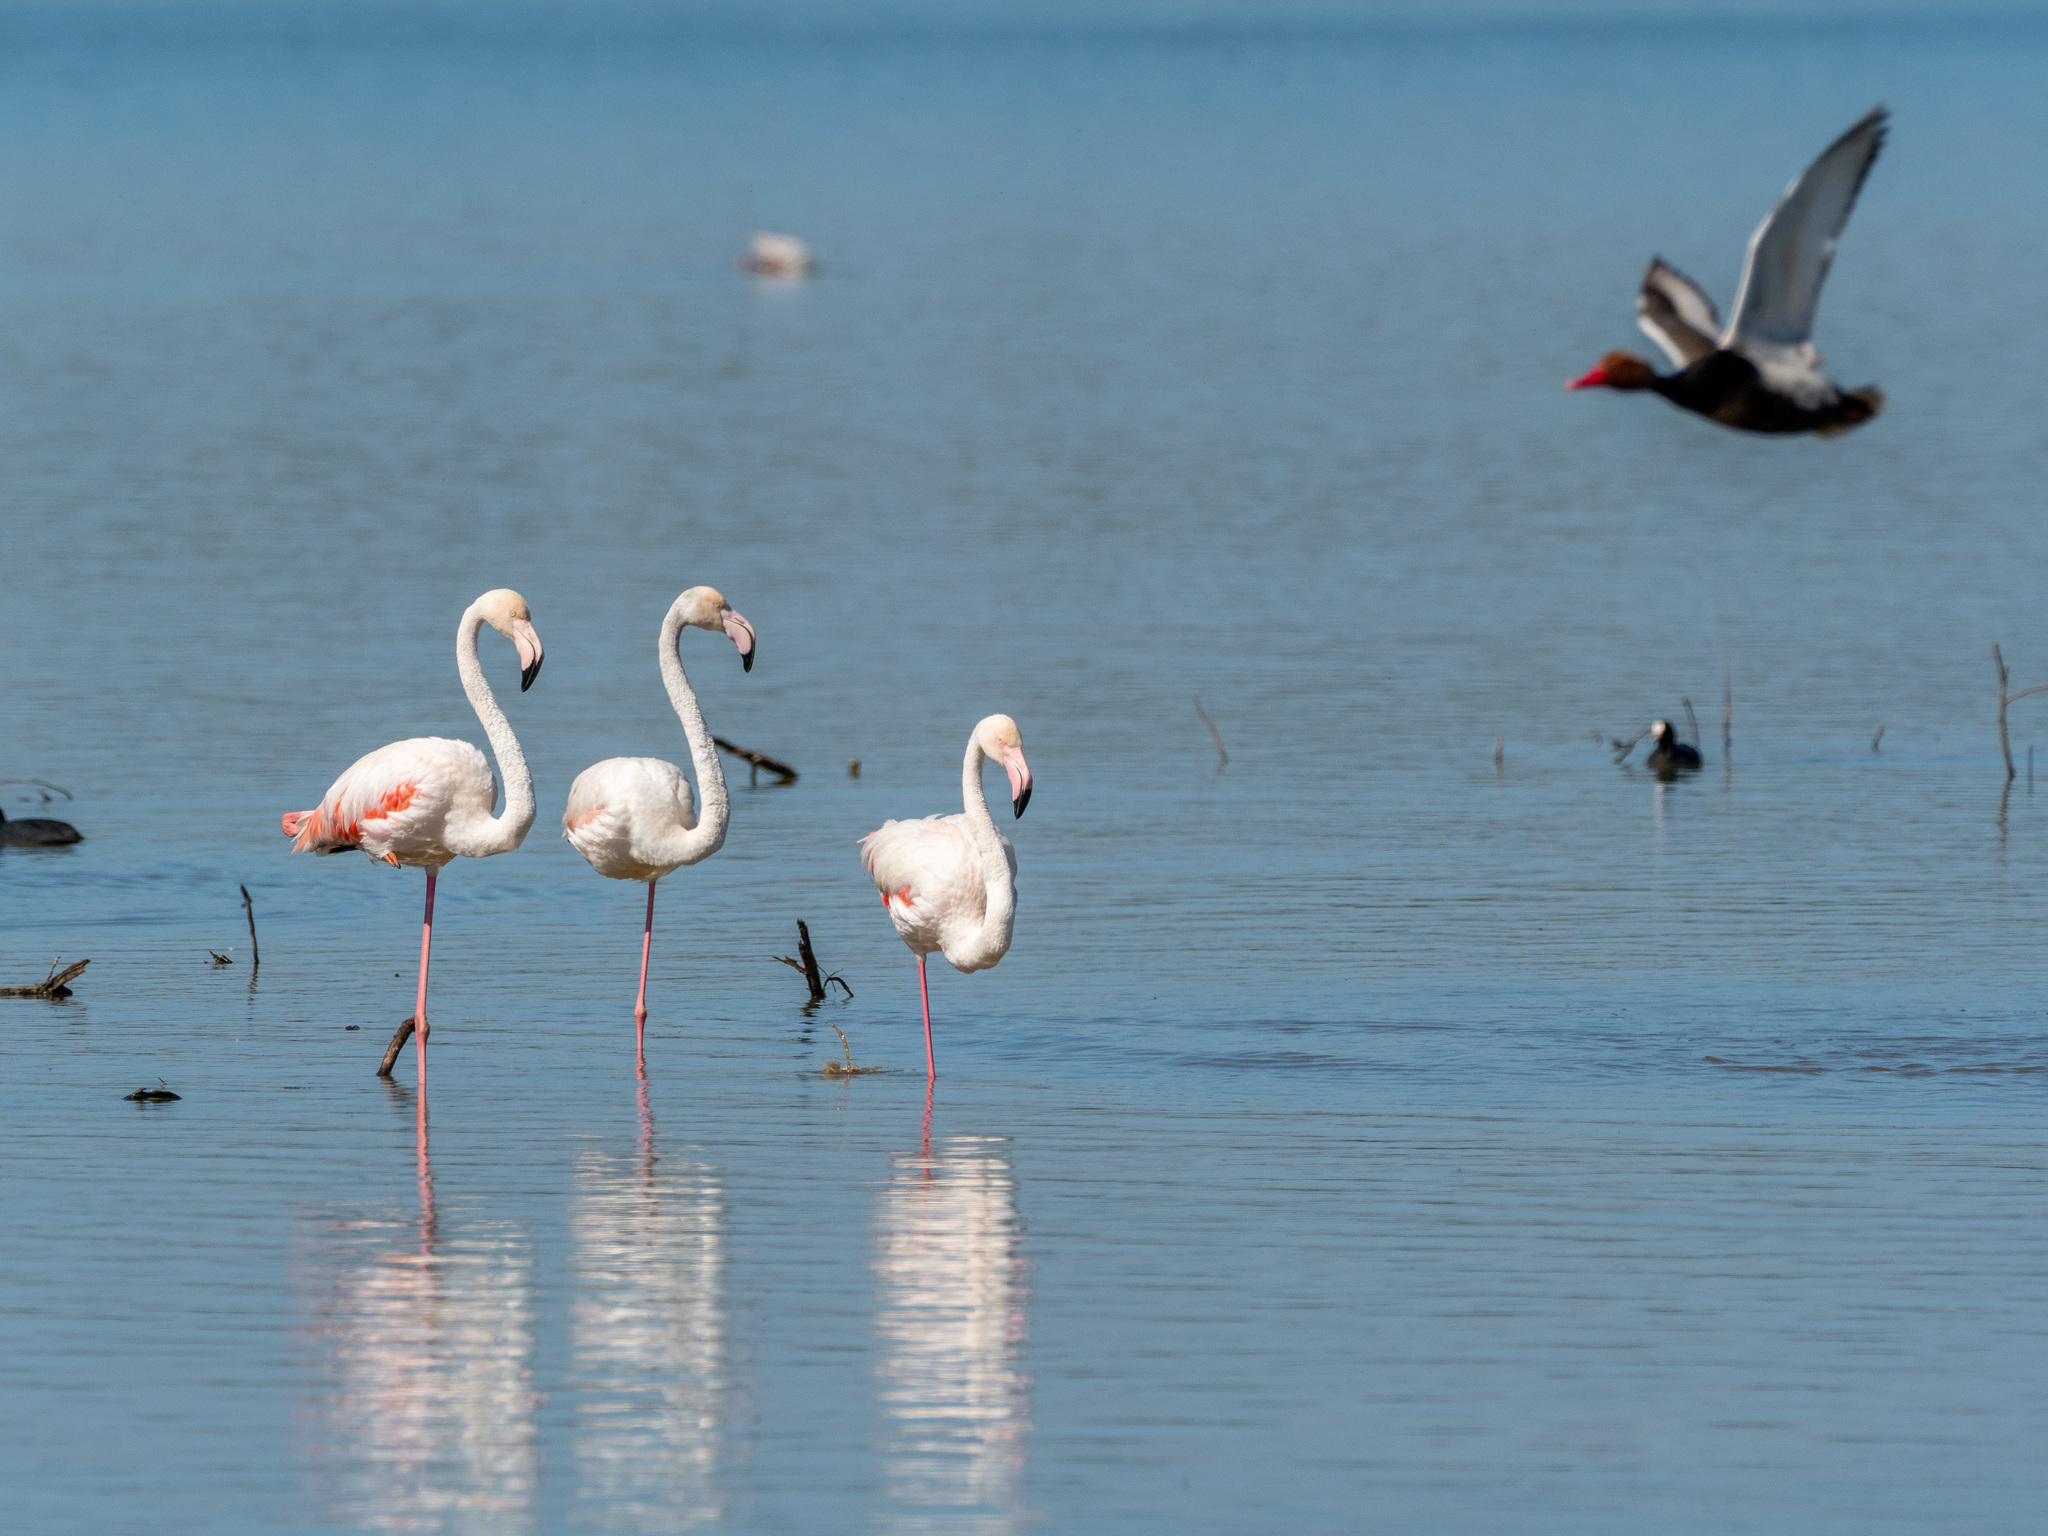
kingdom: Animalia
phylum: Chordata
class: Aves
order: Phoenicopteriformes
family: Phoenicopteridae
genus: Phoenicopterus
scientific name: Phoenicopterus roseus
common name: Greater flamingo
